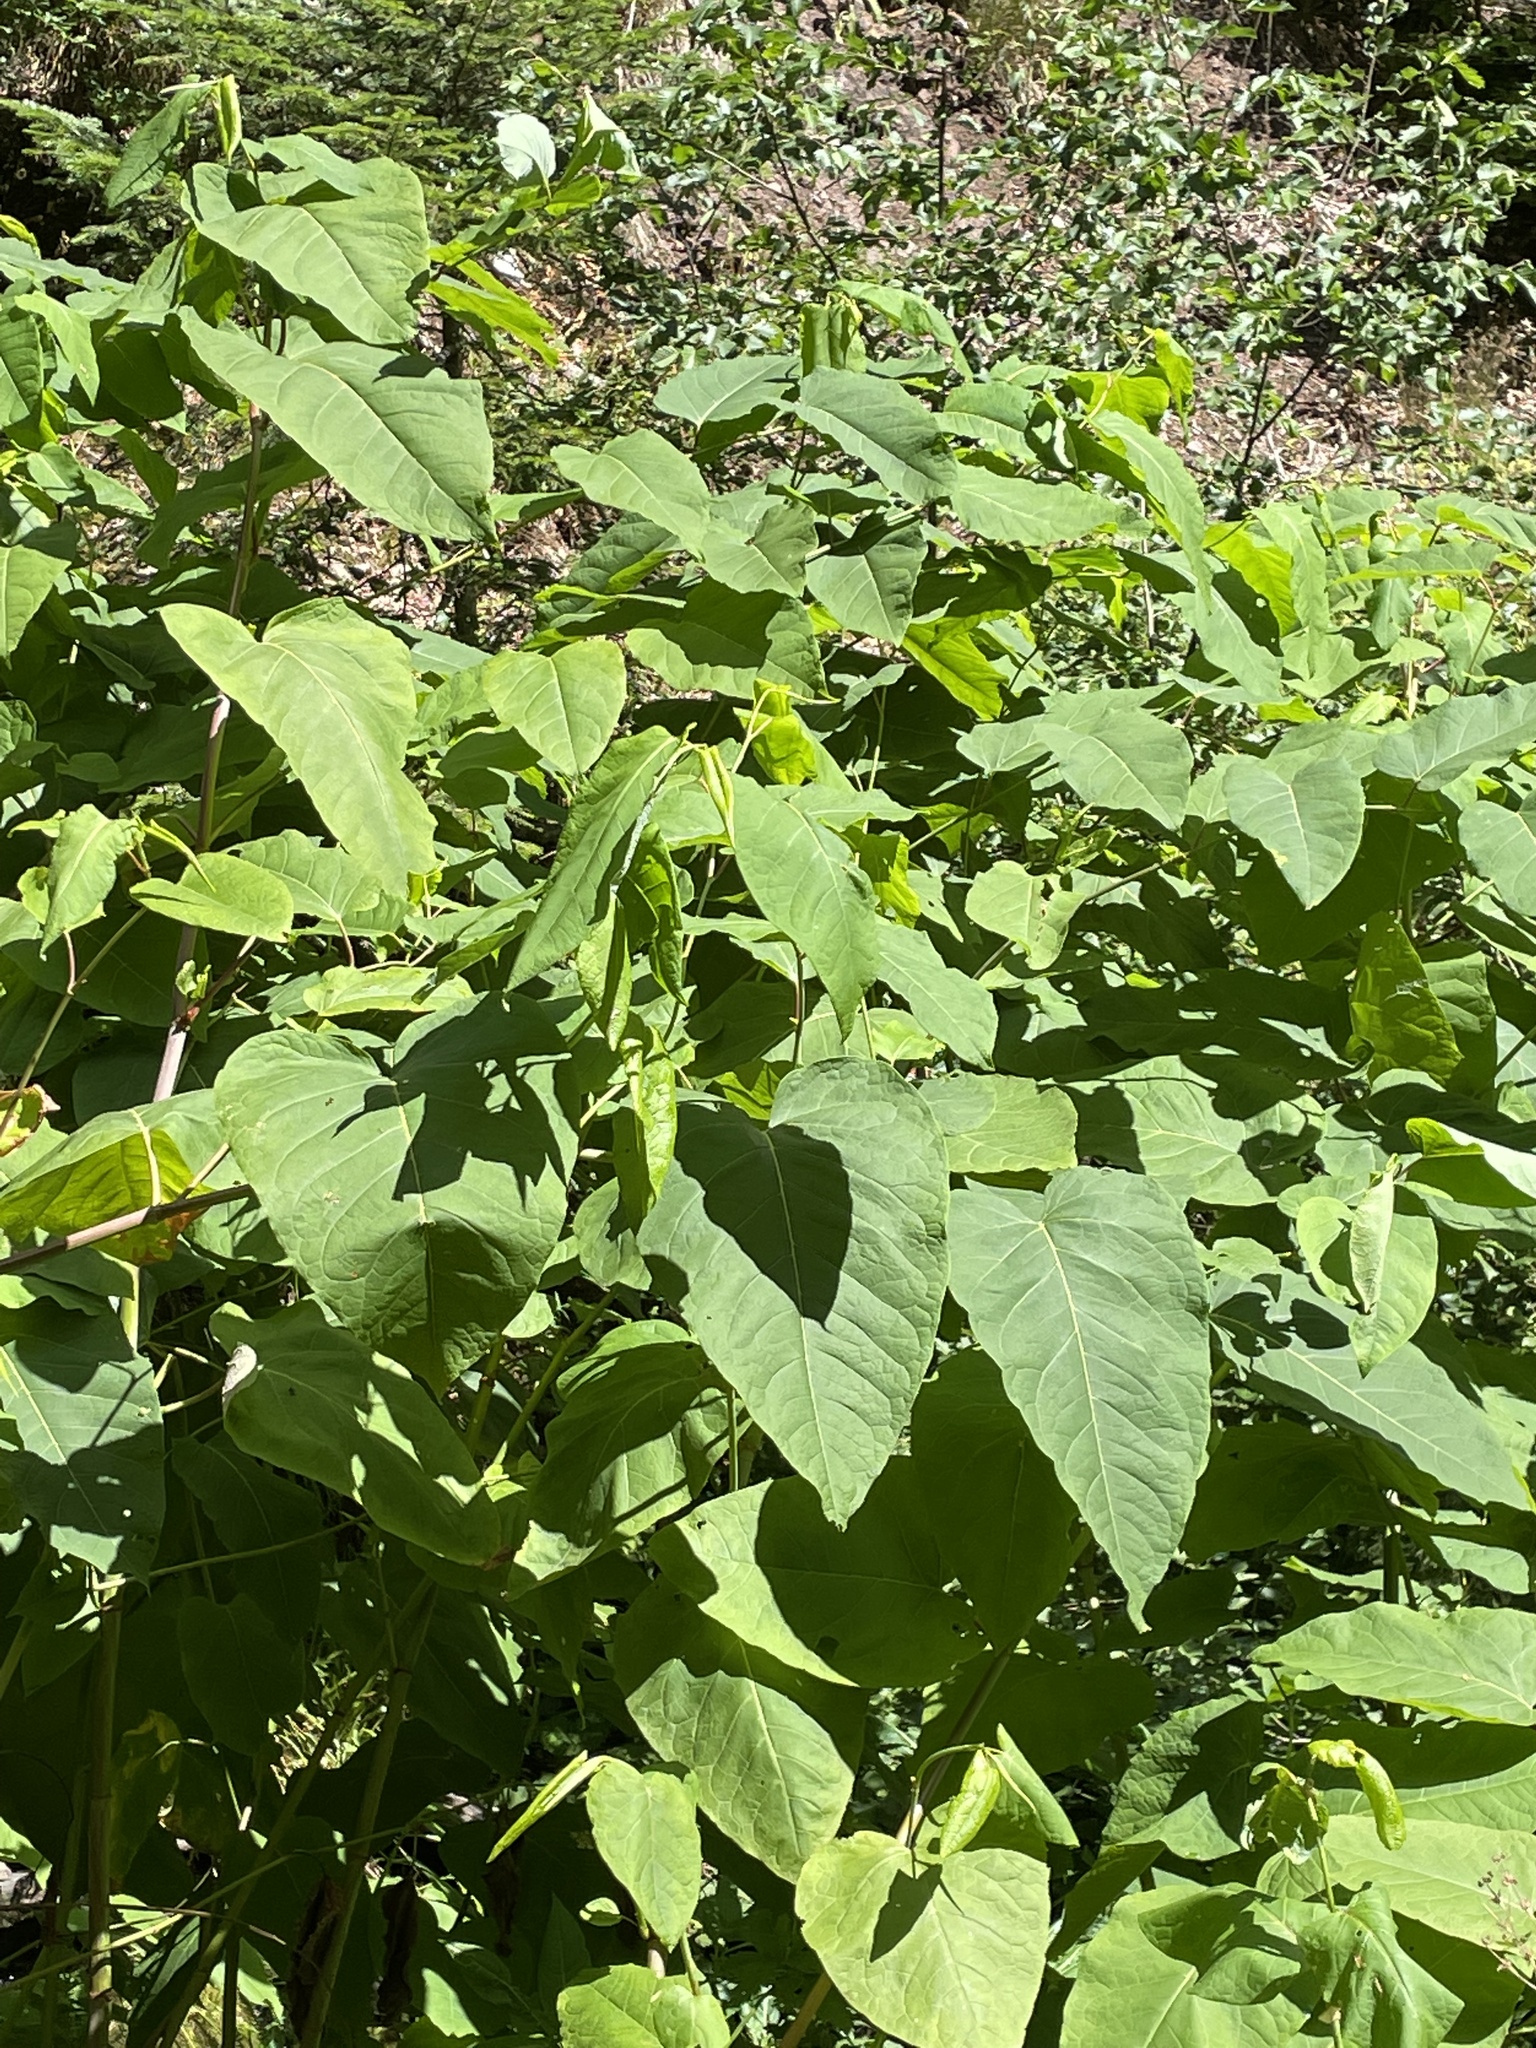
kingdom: Plantae
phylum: Tracheophyta
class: Magnoliopsida
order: Caryophyllales
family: Polygonaceae
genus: Reynoutria
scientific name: Reynoutria sachalinensis
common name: Giant knotweed
